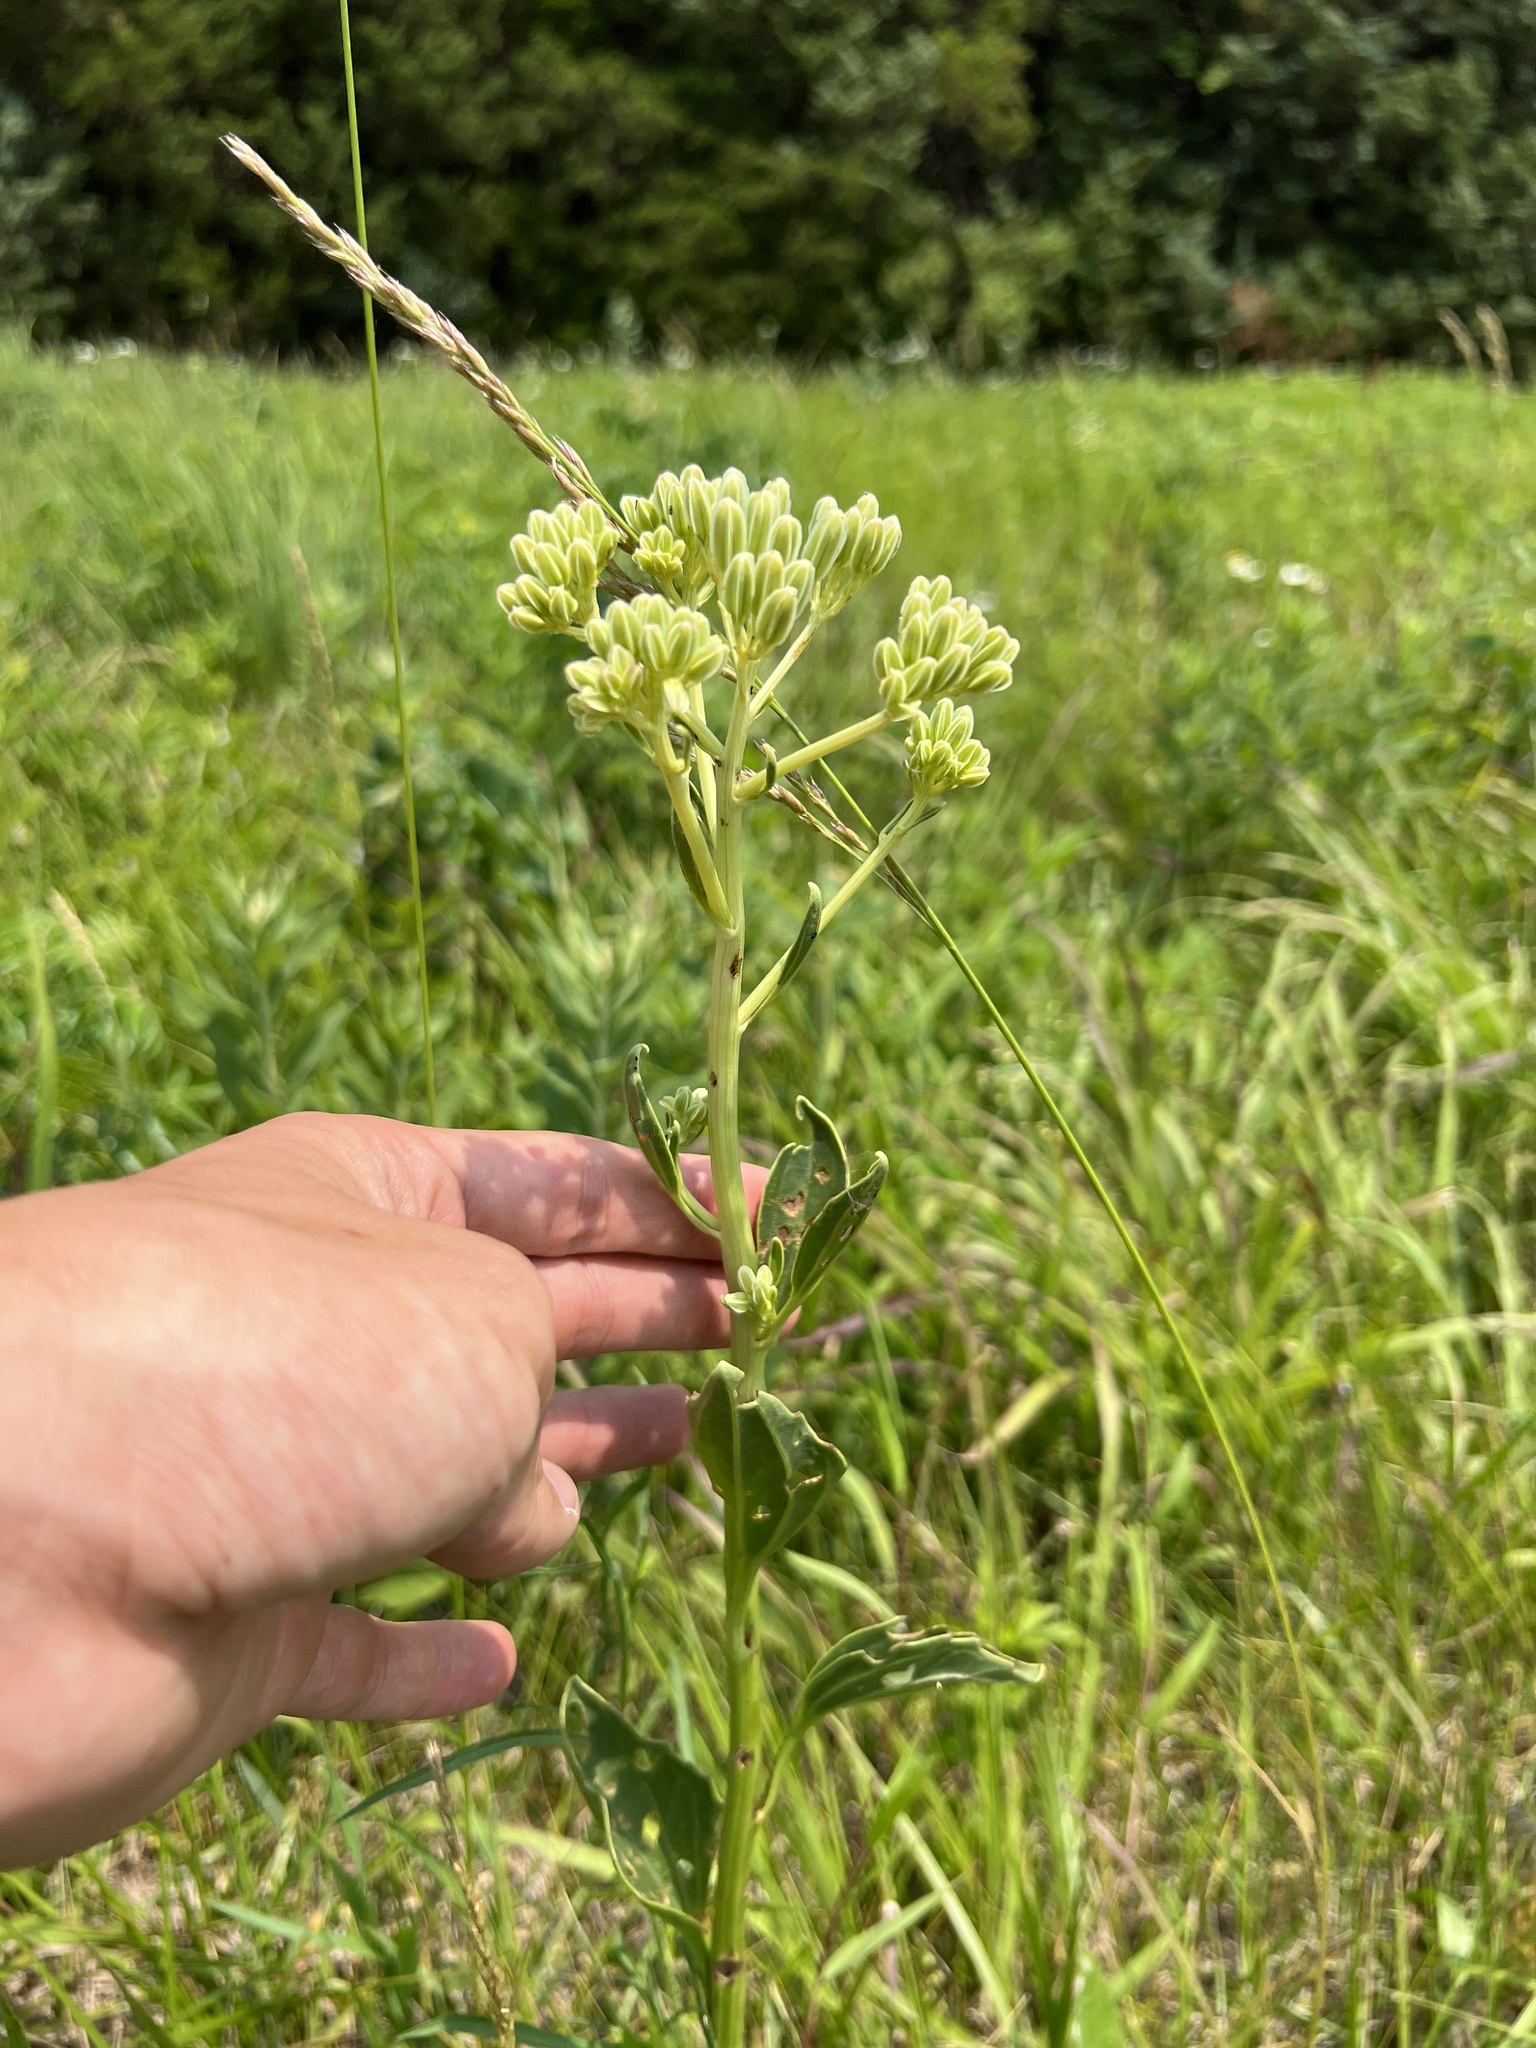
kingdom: Plantae
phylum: Tracheophyta
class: Magnoliopsida
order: Asterales
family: Asteraceae
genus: Arnoglossum
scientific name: Arnoglossum plantagineum
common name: Groove-stemmed indian-plantain
